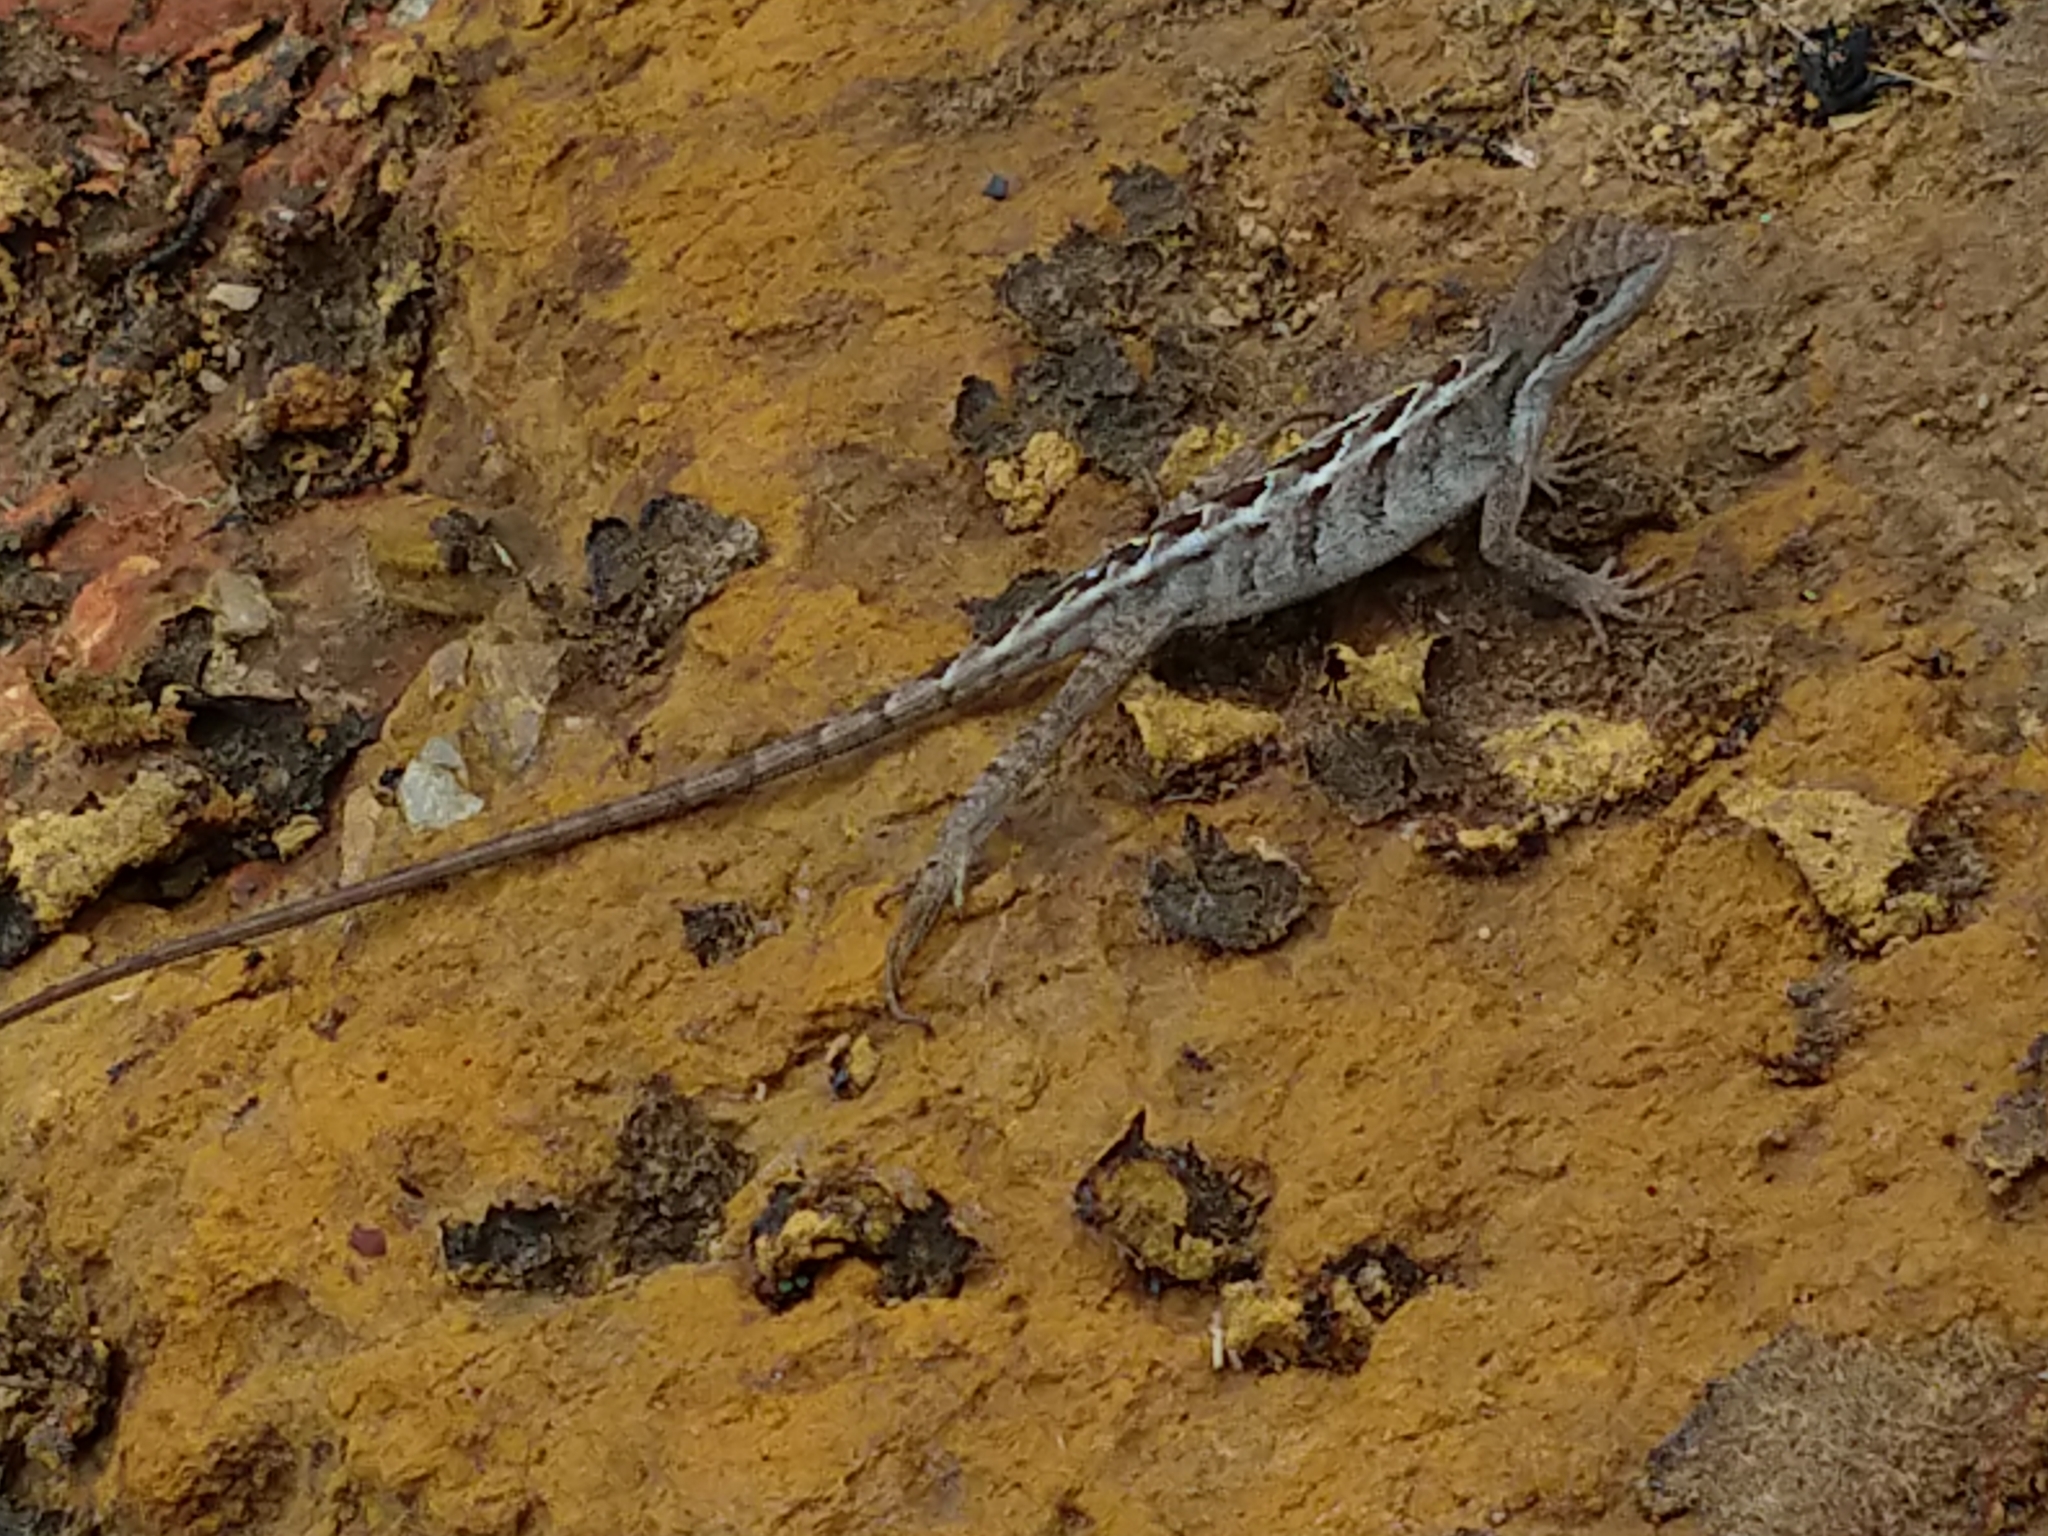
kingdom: Animalia
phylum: Chordata
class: Squamata
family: Leiosauridae
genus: Enyalius
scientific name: Enyalius bilineatus
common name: Two-lined fathead anole
